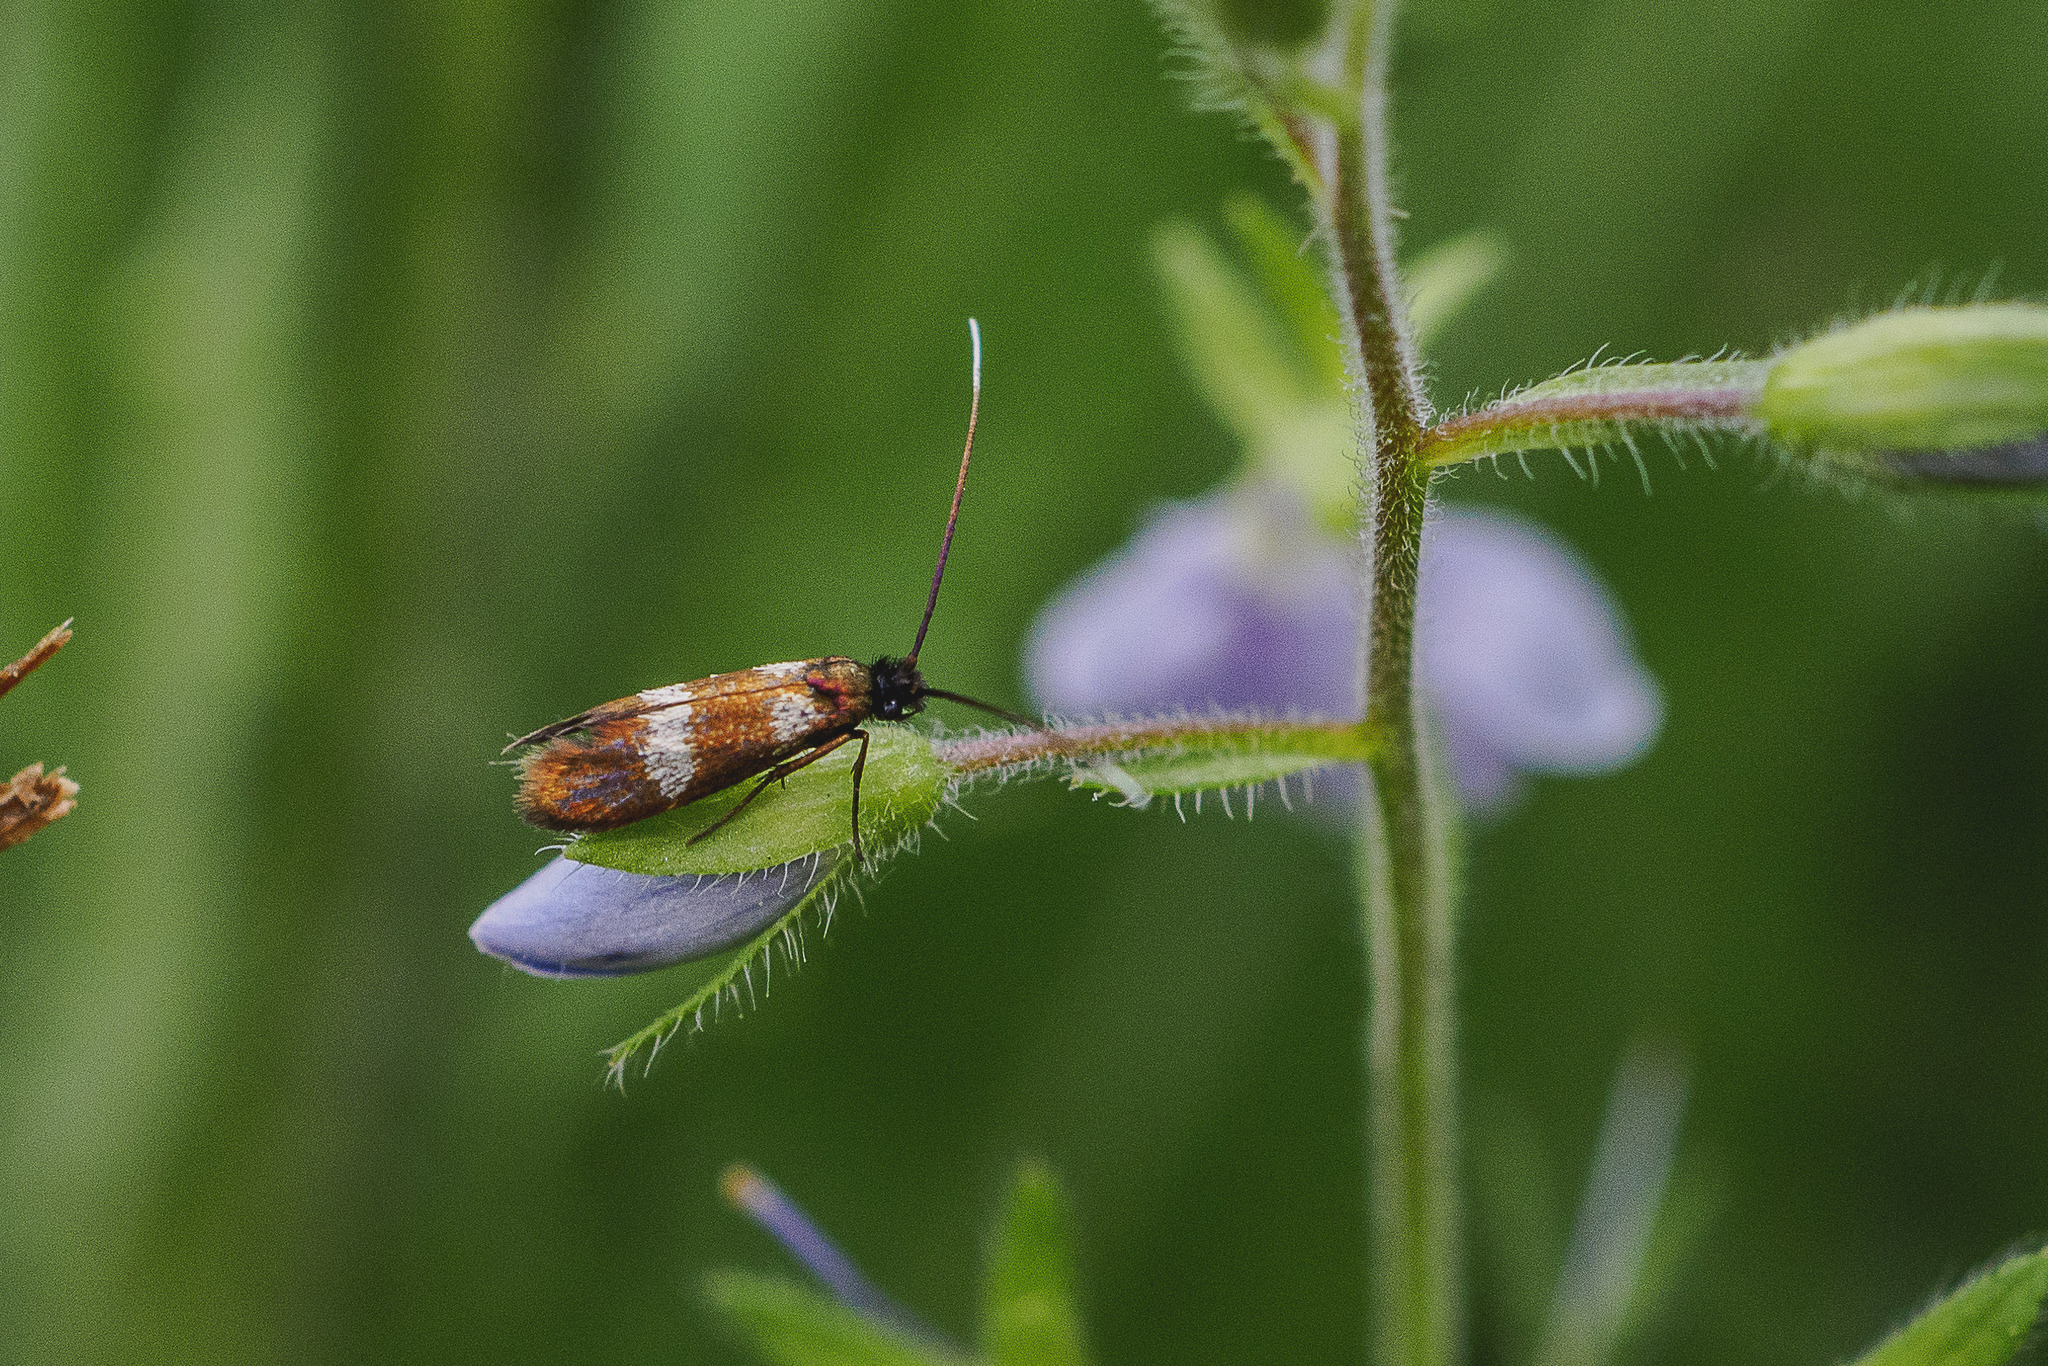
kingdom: Animalia
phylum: Arthropoda
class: Insecta
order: Lepidoptera
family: Adelidae
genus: Cauchas
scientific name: Cauchas fibulella
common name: Little long-horn
